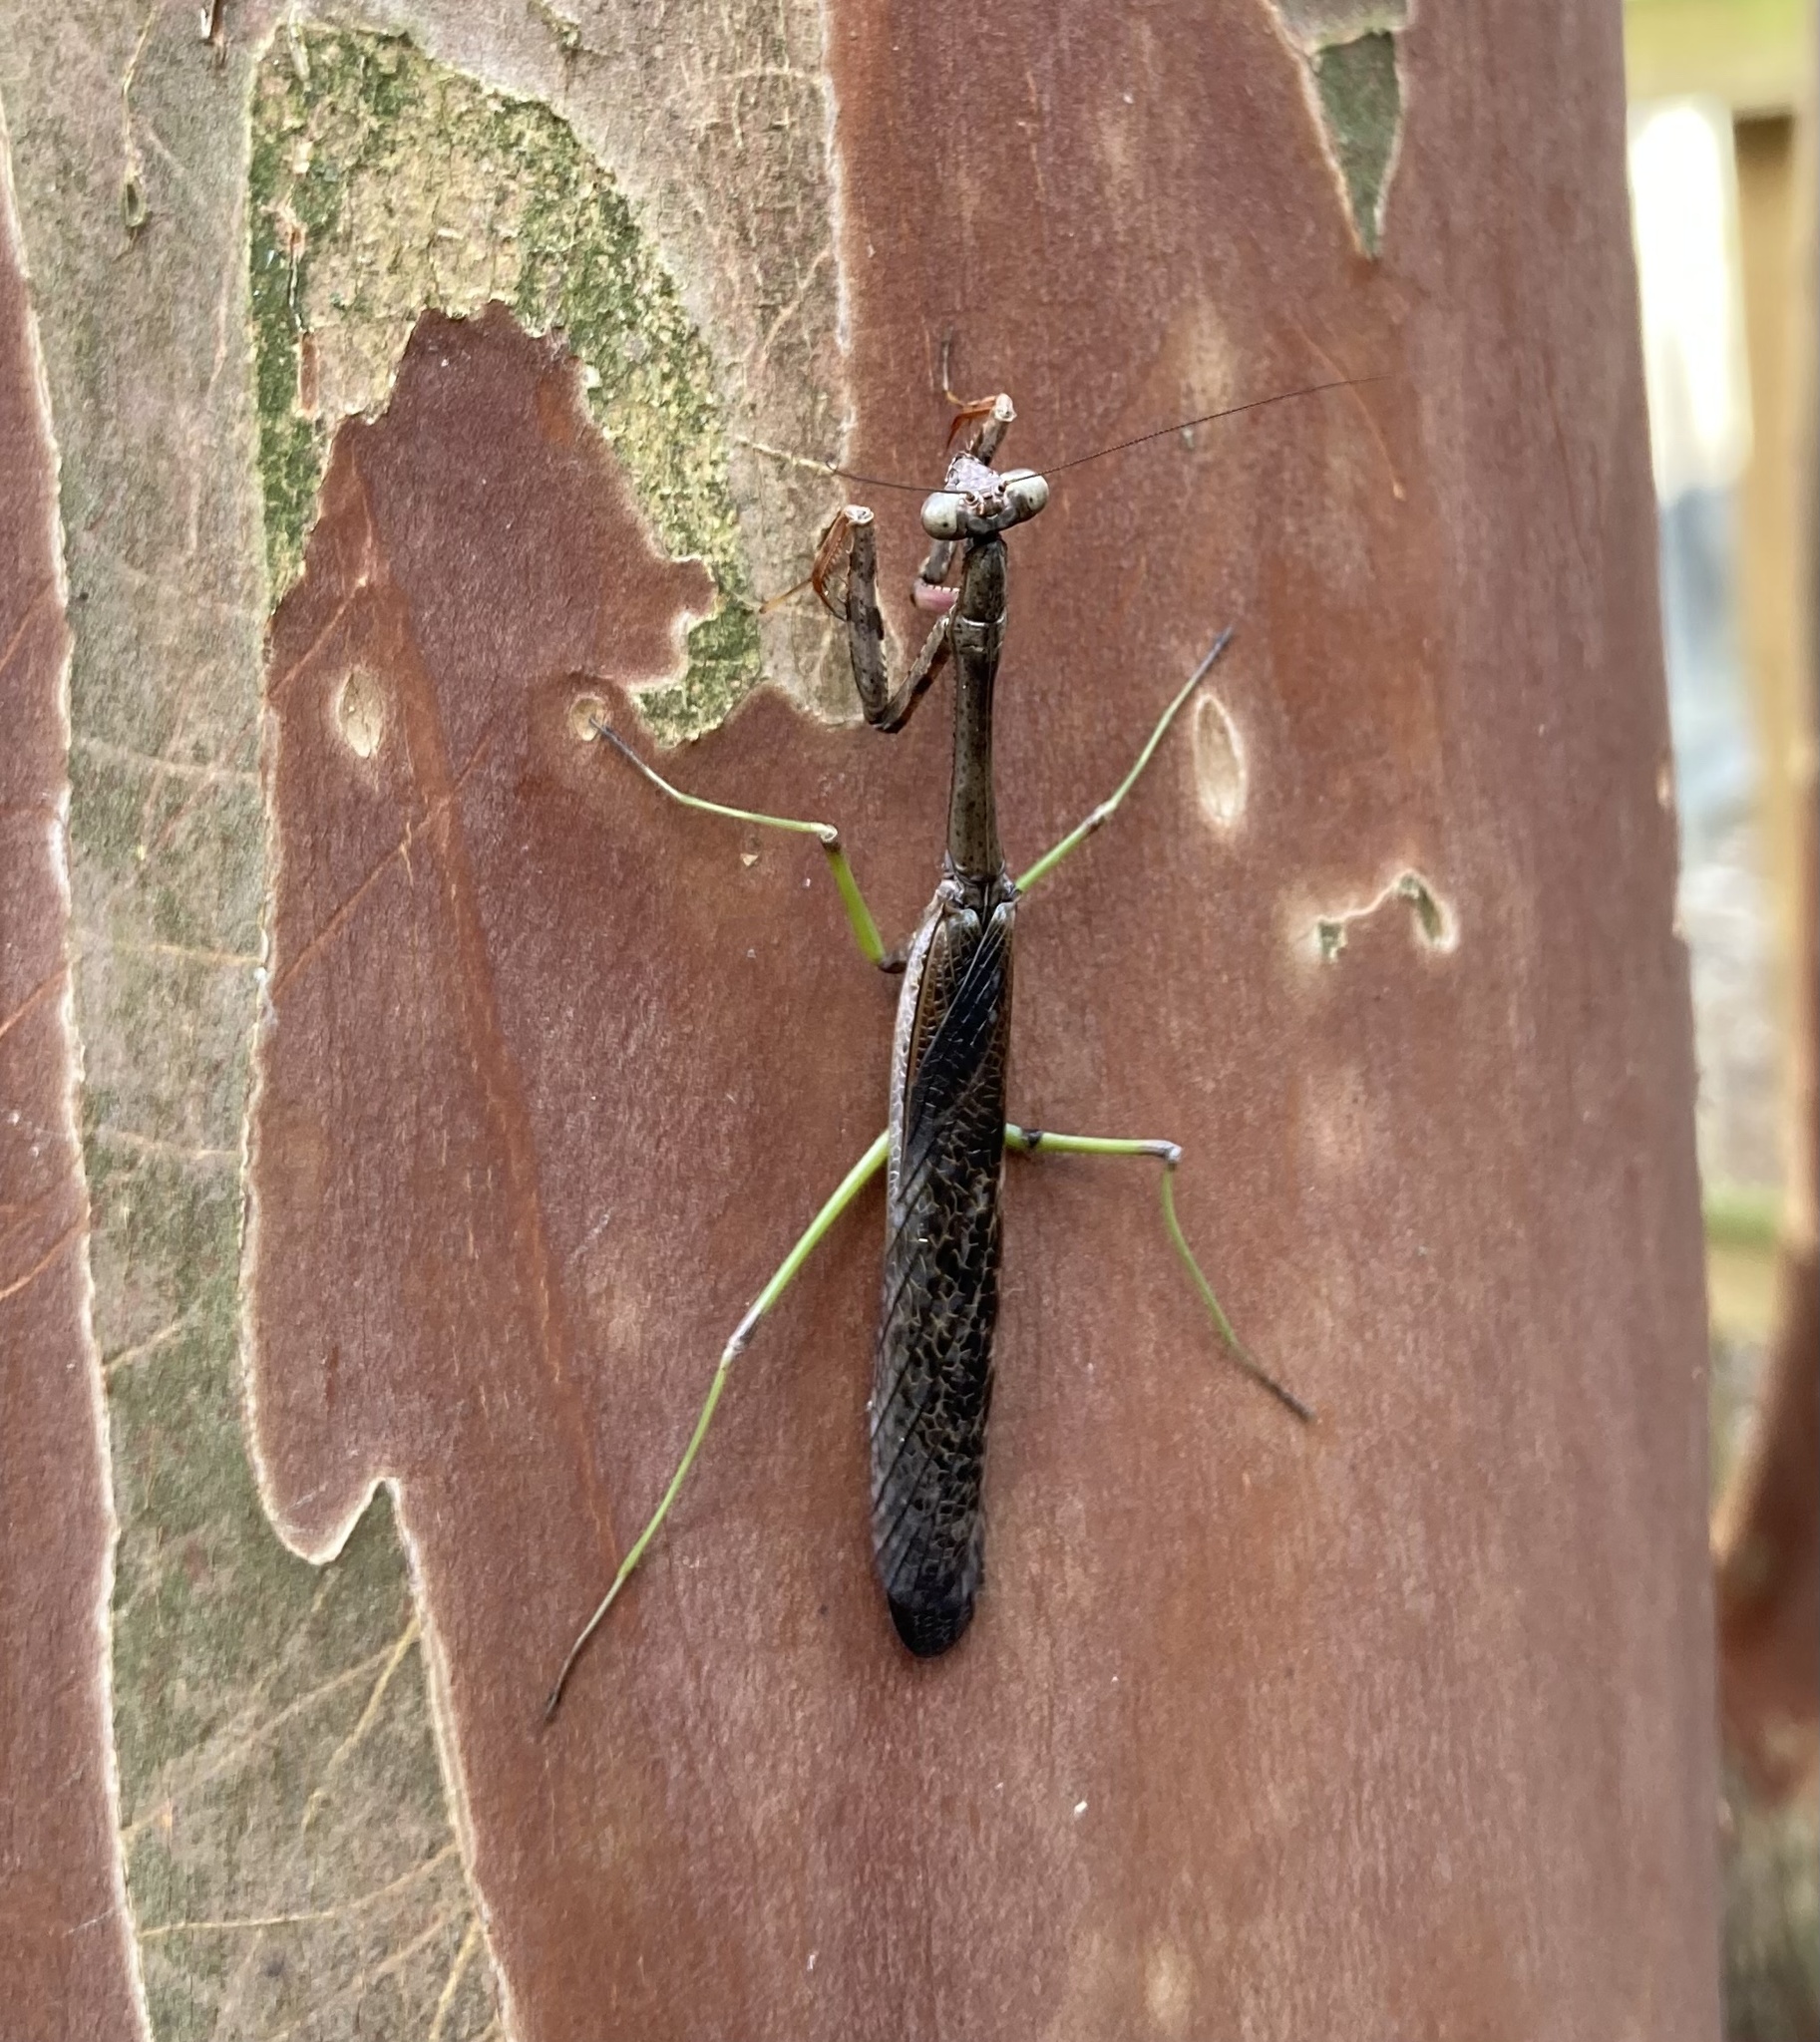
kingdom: Animalia
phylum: Arthropoda
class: Insecta
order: Mantodea
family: Mantidae
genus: Stagmomantis
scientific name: Stagmomantis carolina
